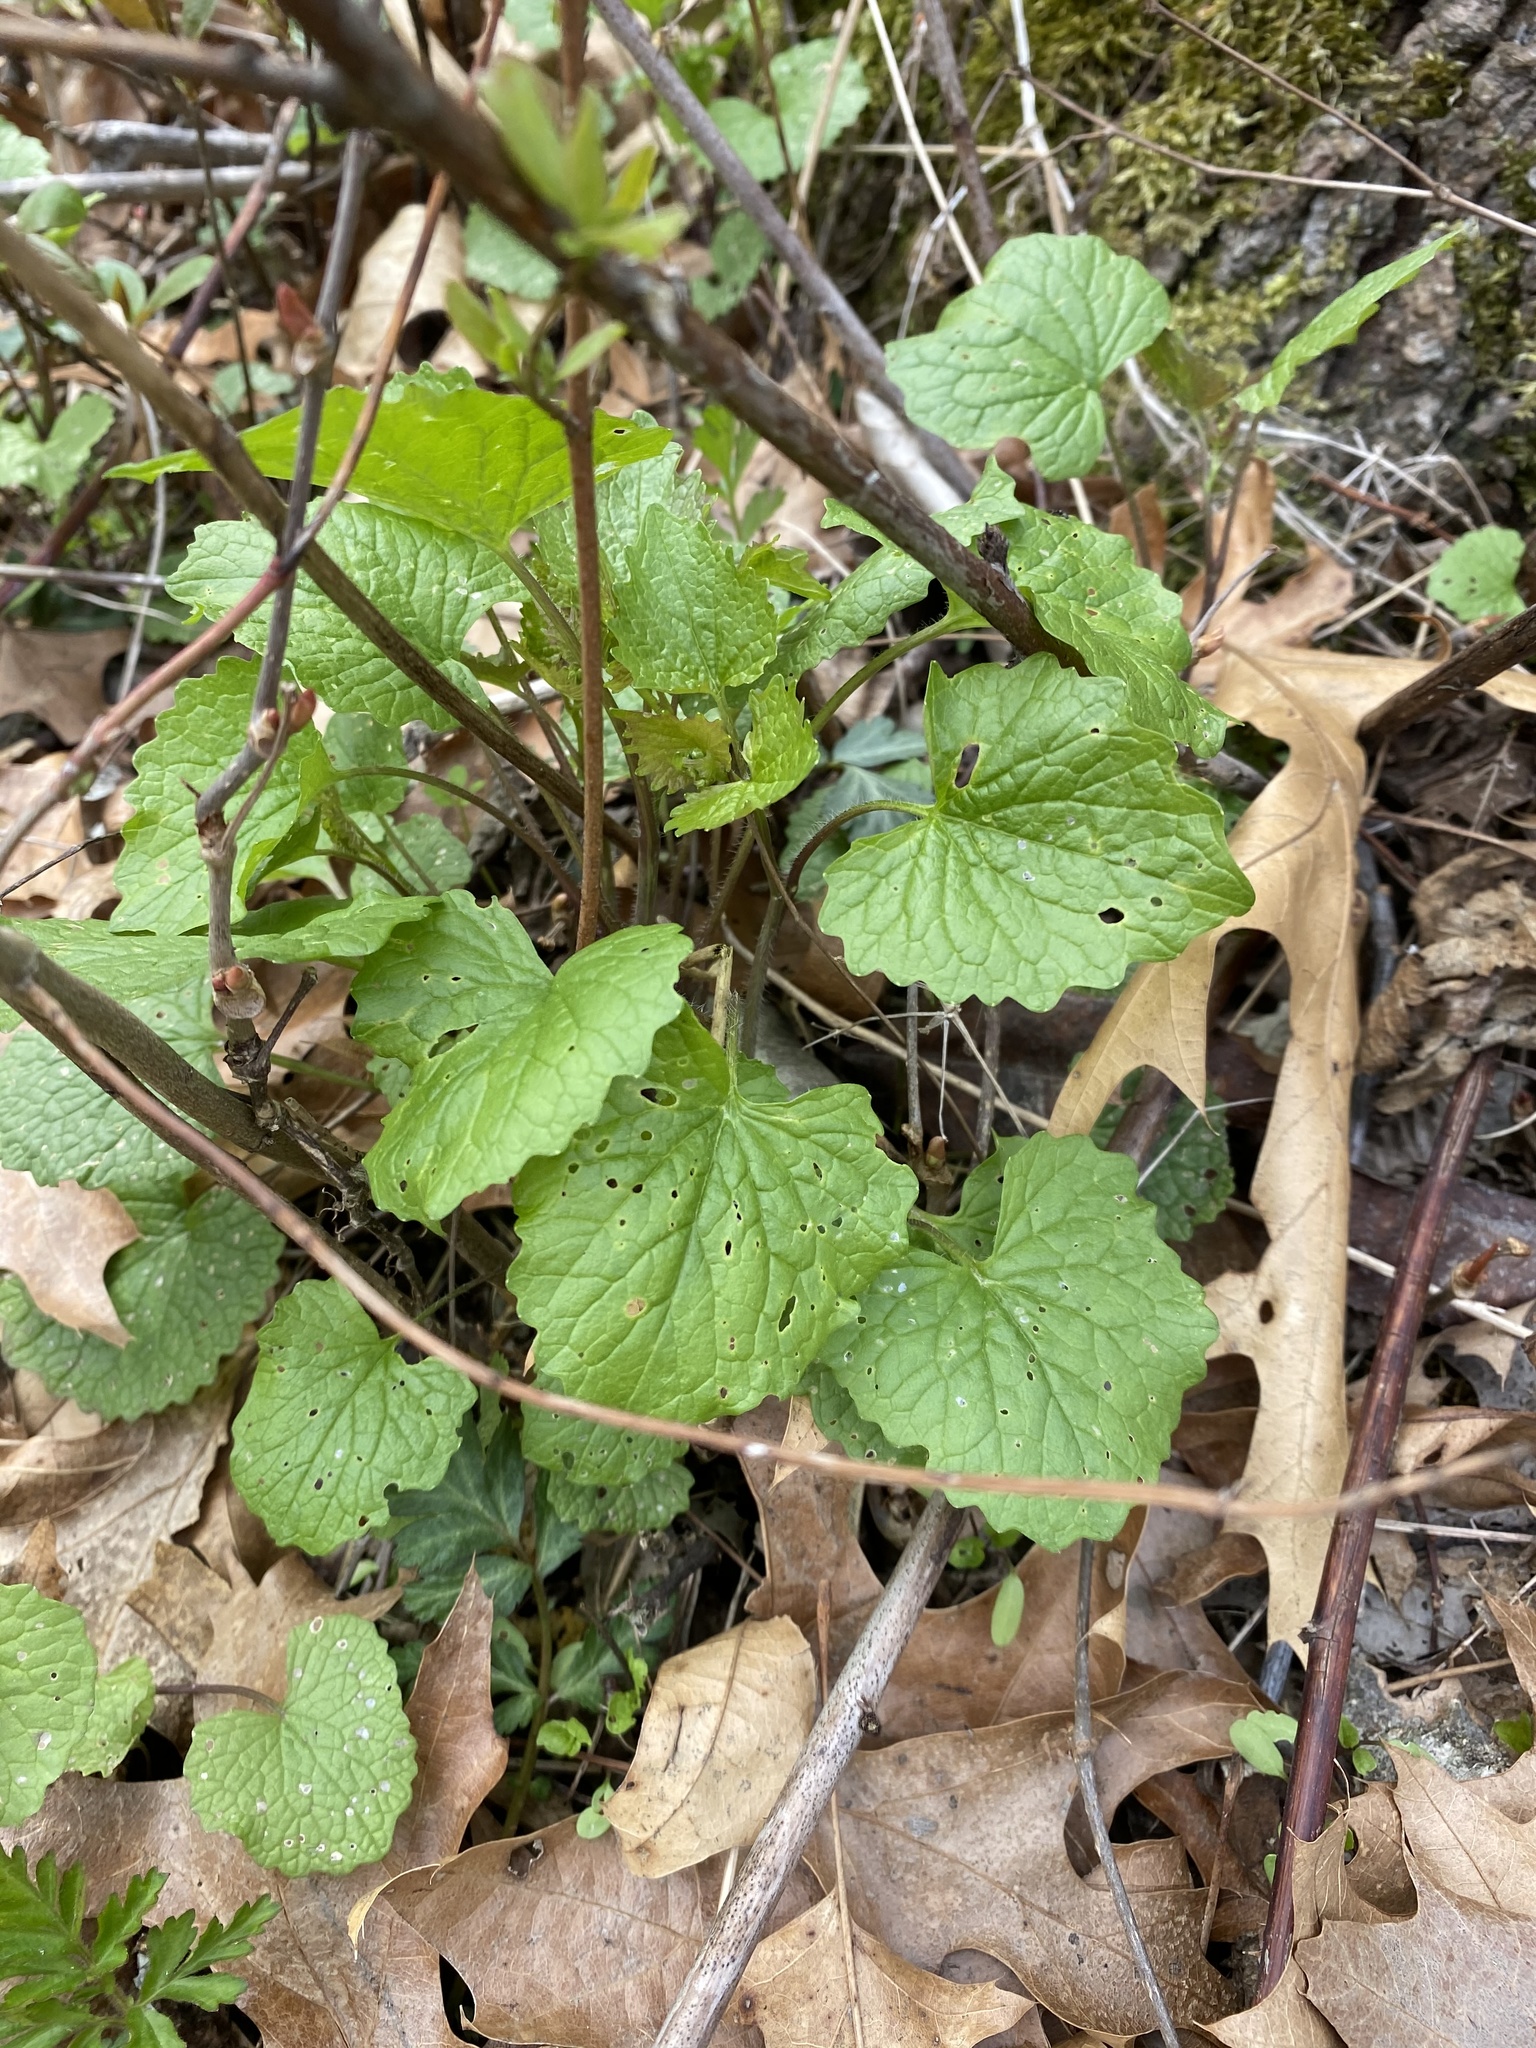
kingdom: Plantae
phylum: Tracheophyta
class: Magnoliopsida
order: Brassicales
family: Brassicaceae
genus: Alliaria
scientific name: Alliaria petiolata
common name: Garlic mustard
